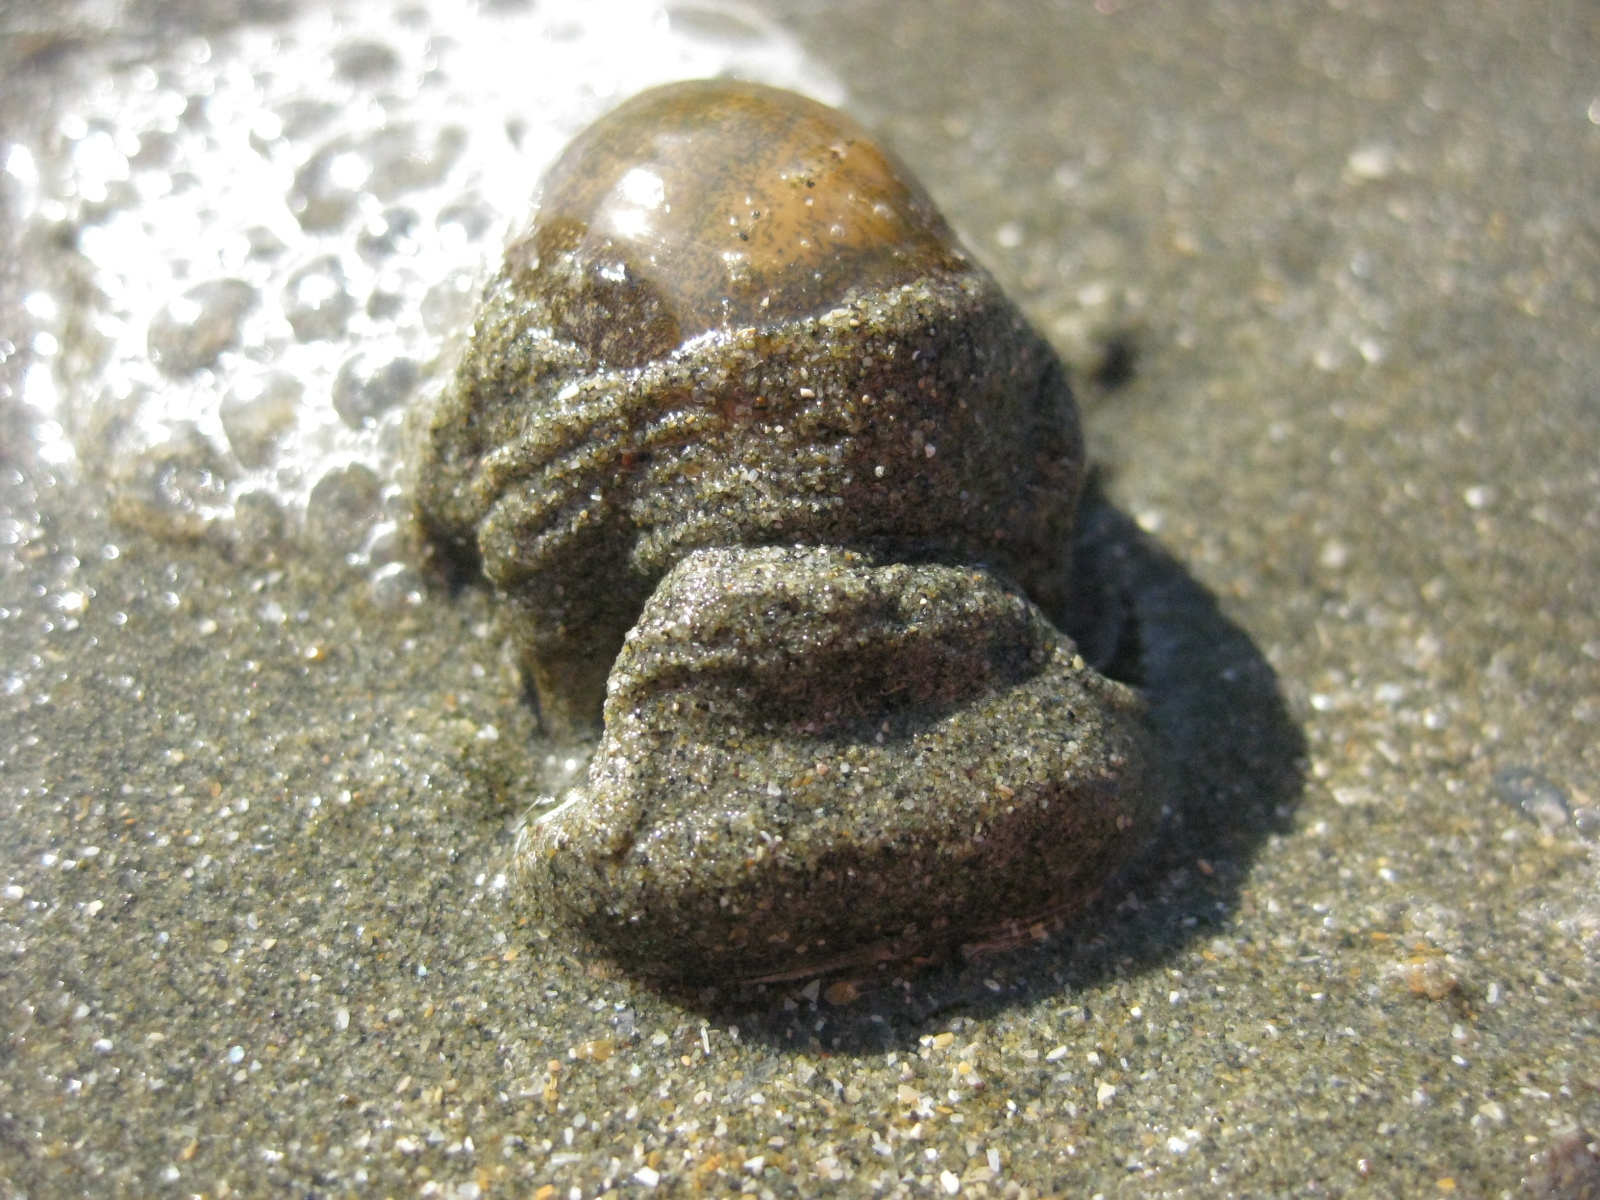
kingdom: Animalia
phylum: Mollusca
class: Gastropoda
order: Cephalaspidea
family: Haminoeidae
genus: Papawera
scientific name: Papawera zelandiae
